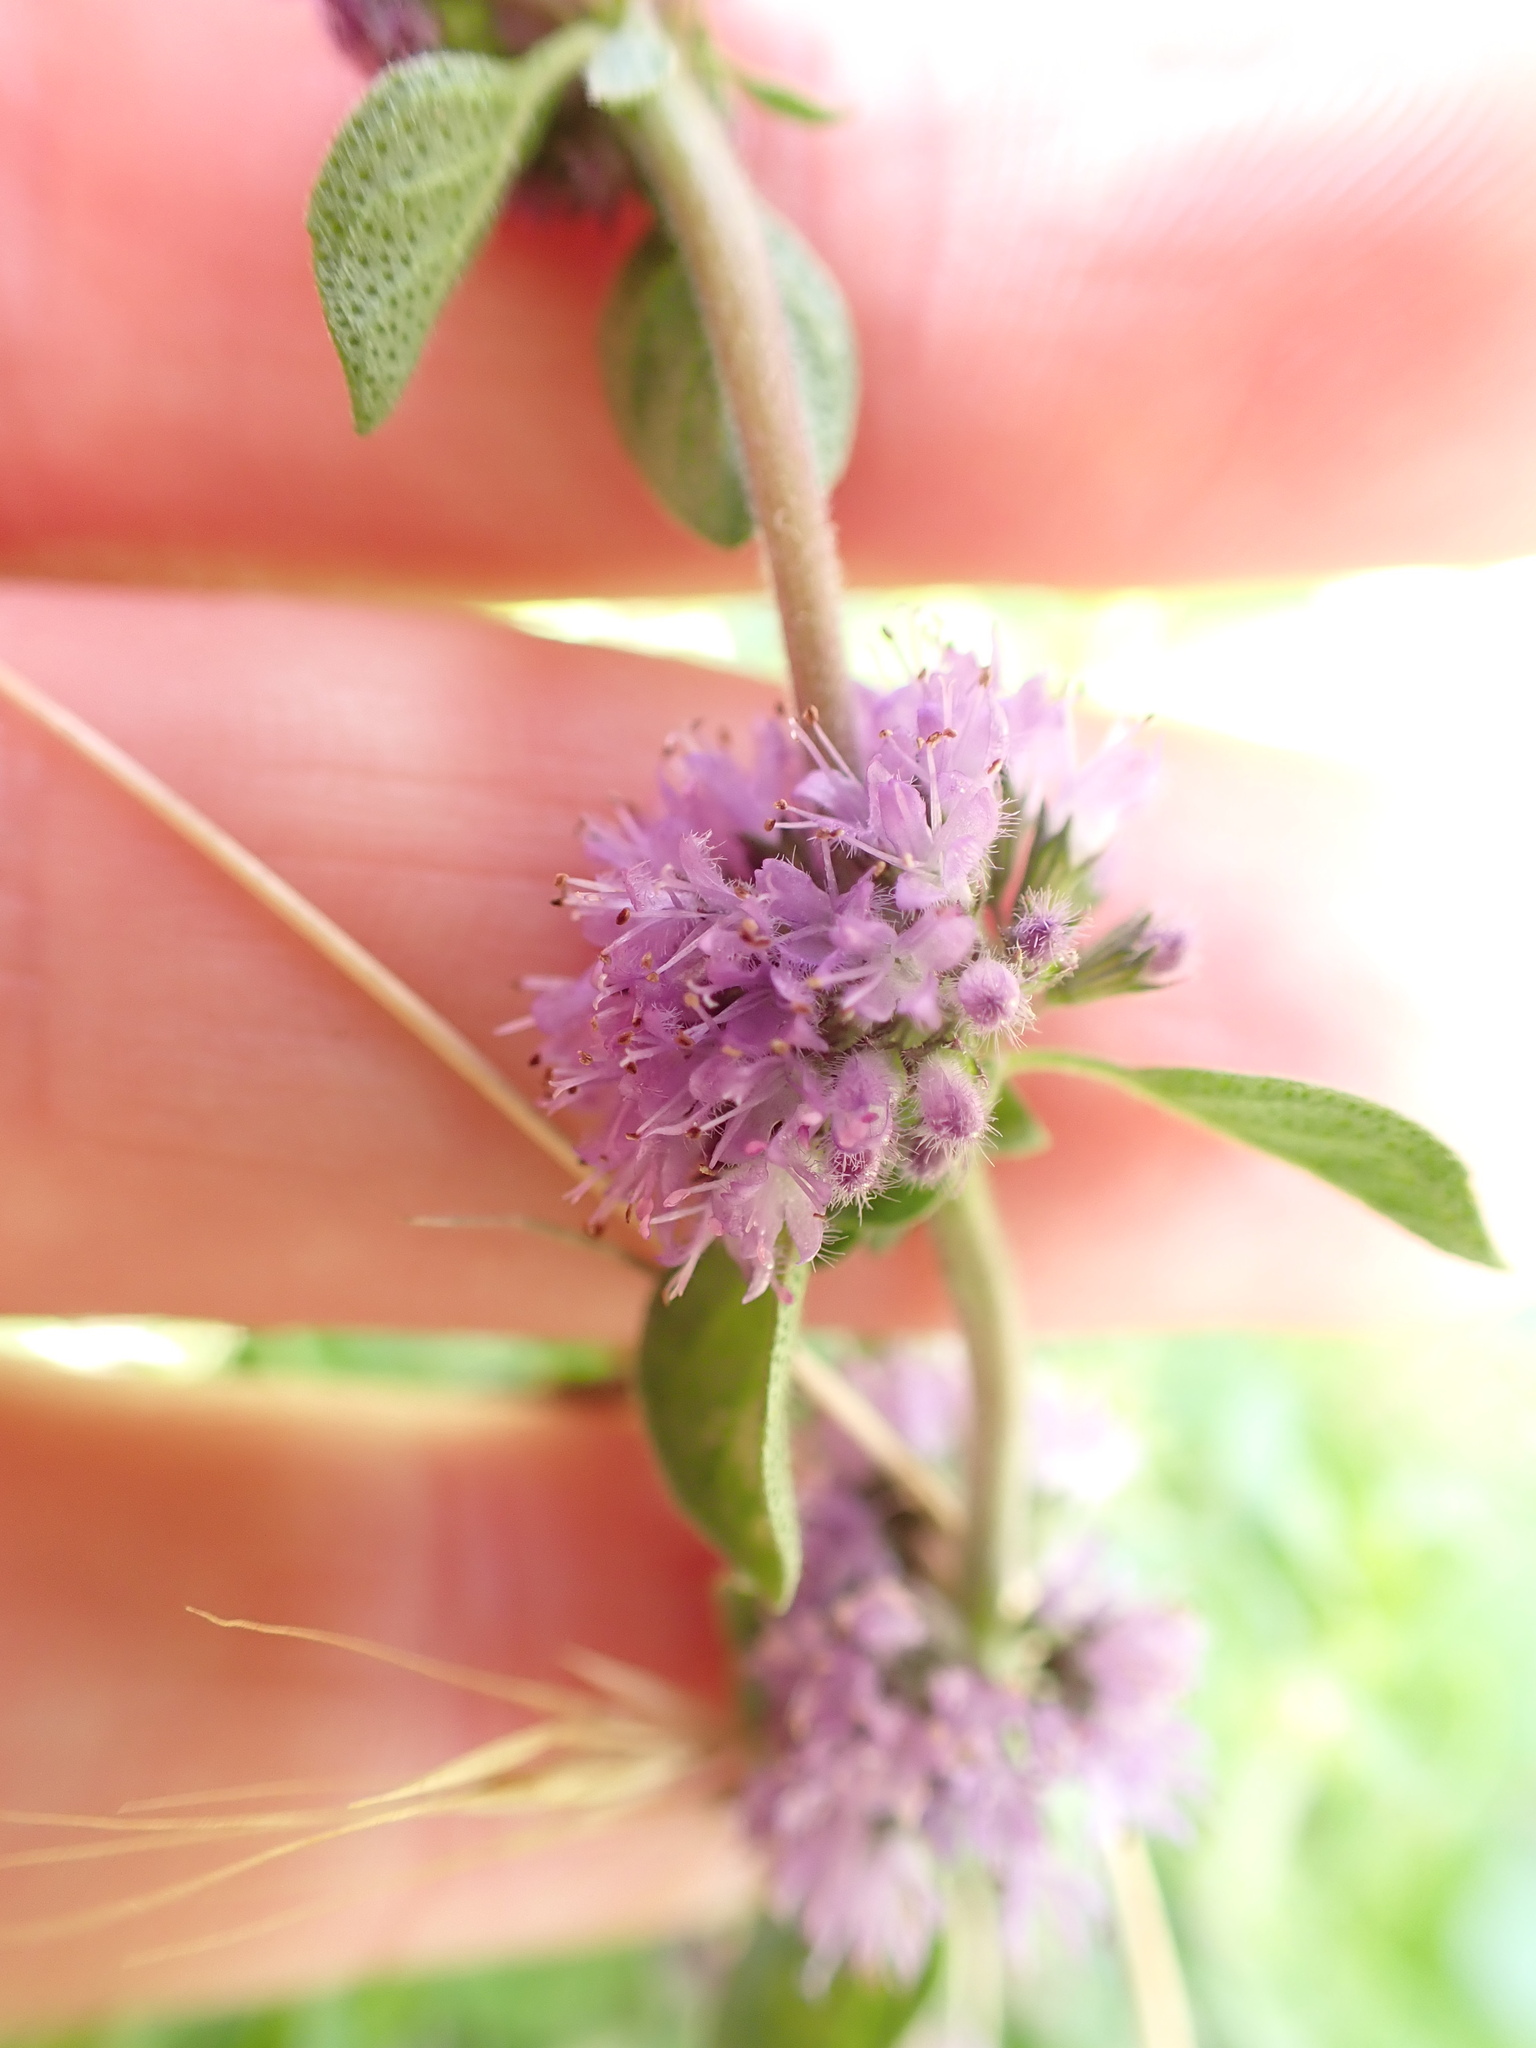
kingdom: Plantae
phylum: Tracheophyta
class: Magnoliopsida
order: Lamiales
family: Lamiaceae
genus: Mentha
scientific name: Mentha pulegium
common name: Pennyroyal
